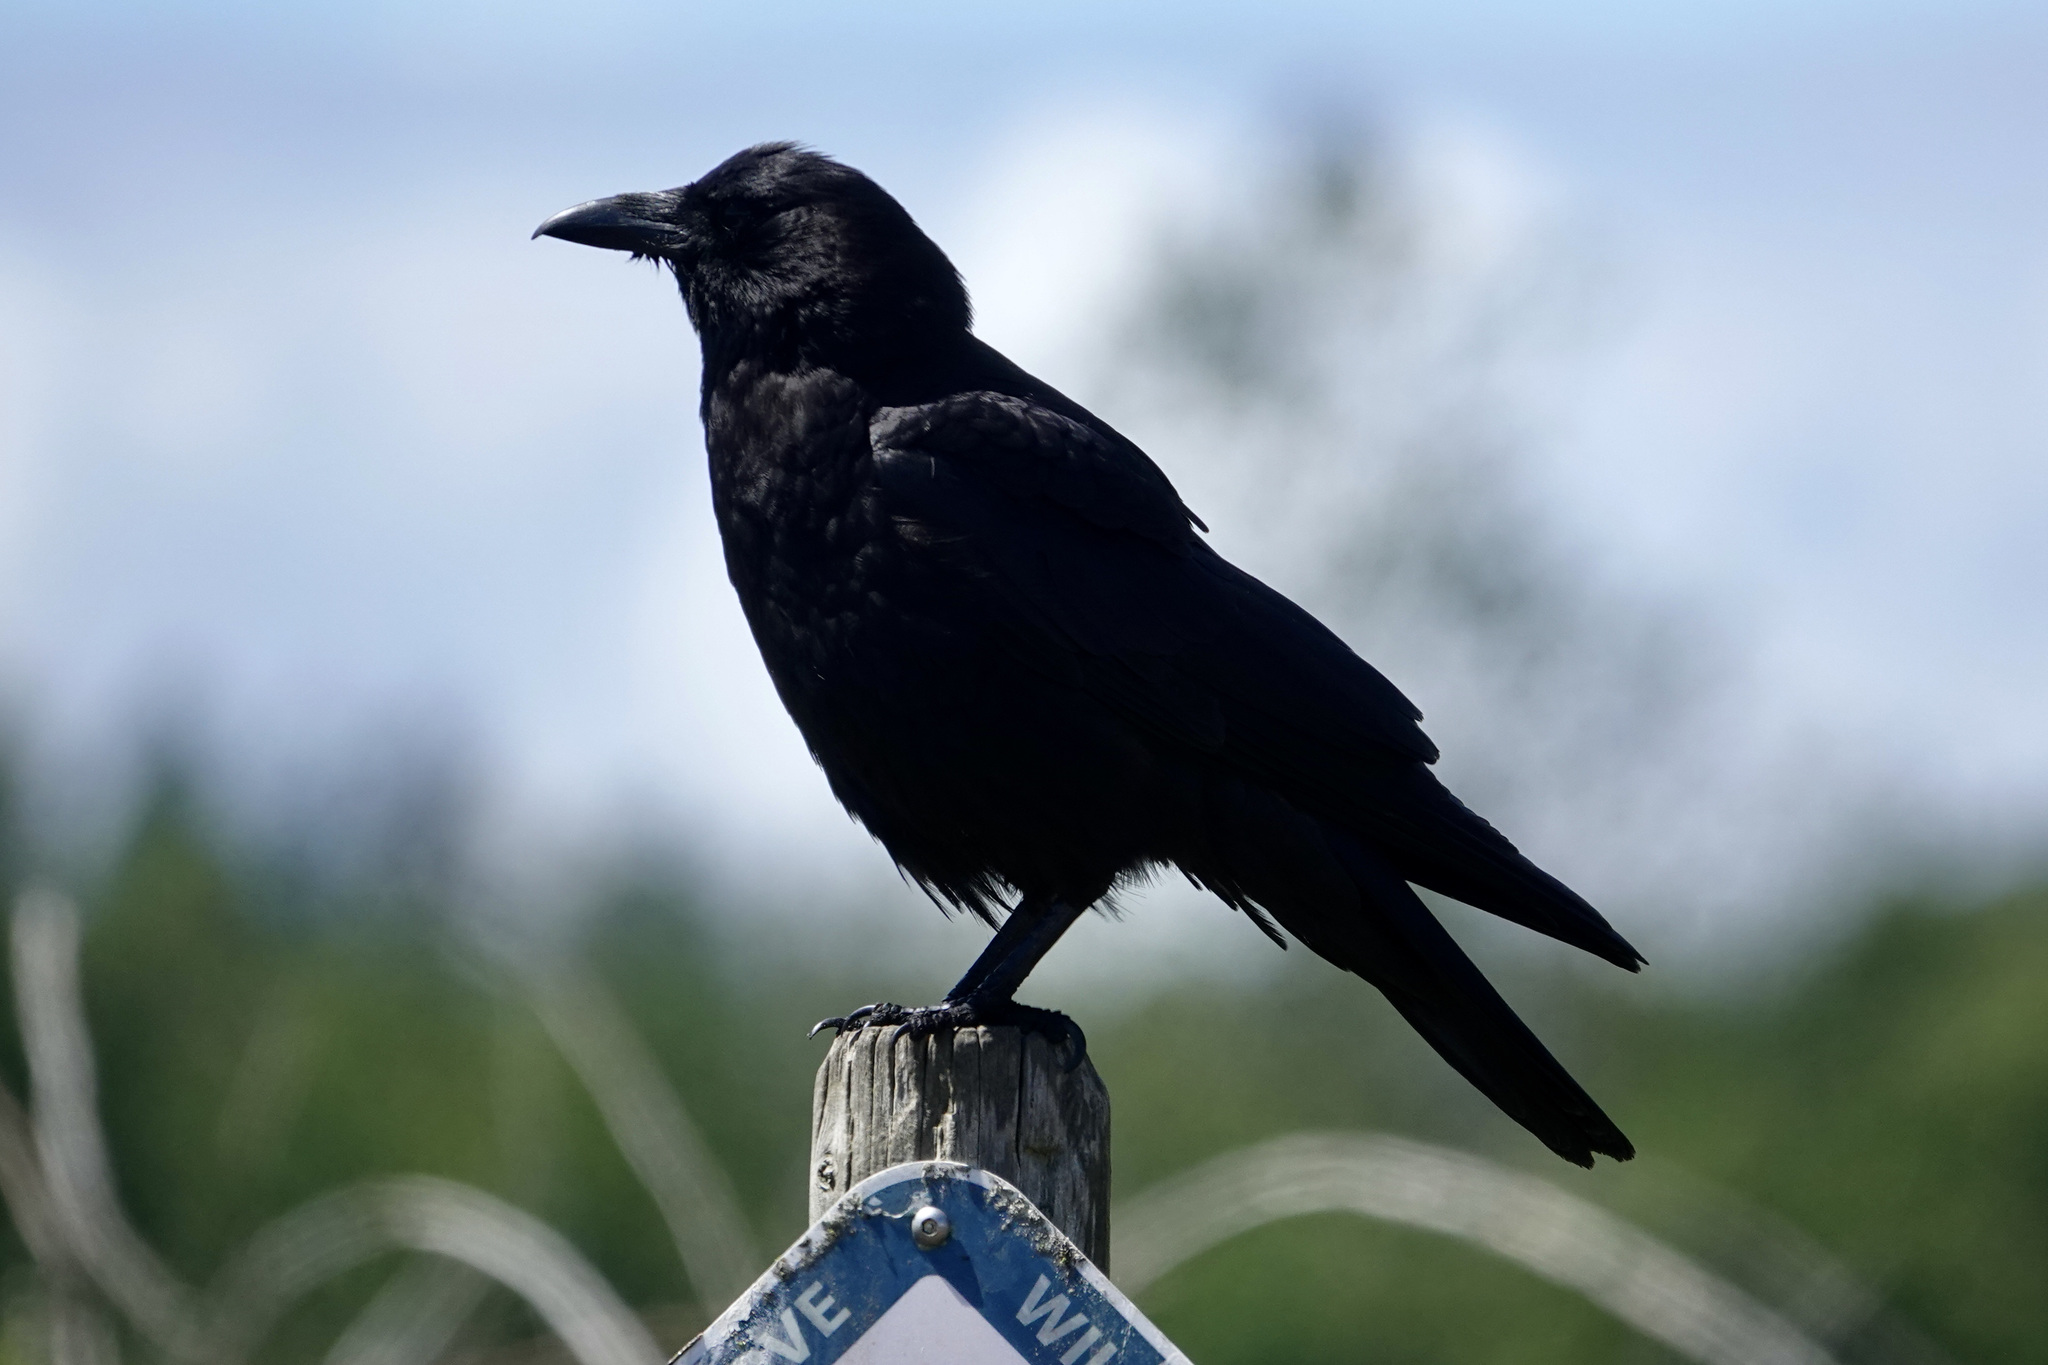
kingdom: Animalia
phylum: Chordata
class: Aves
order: Passeriformes
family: Corvidae
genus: Corvus
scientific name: Corvus brachyrhynchos
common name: American crow
